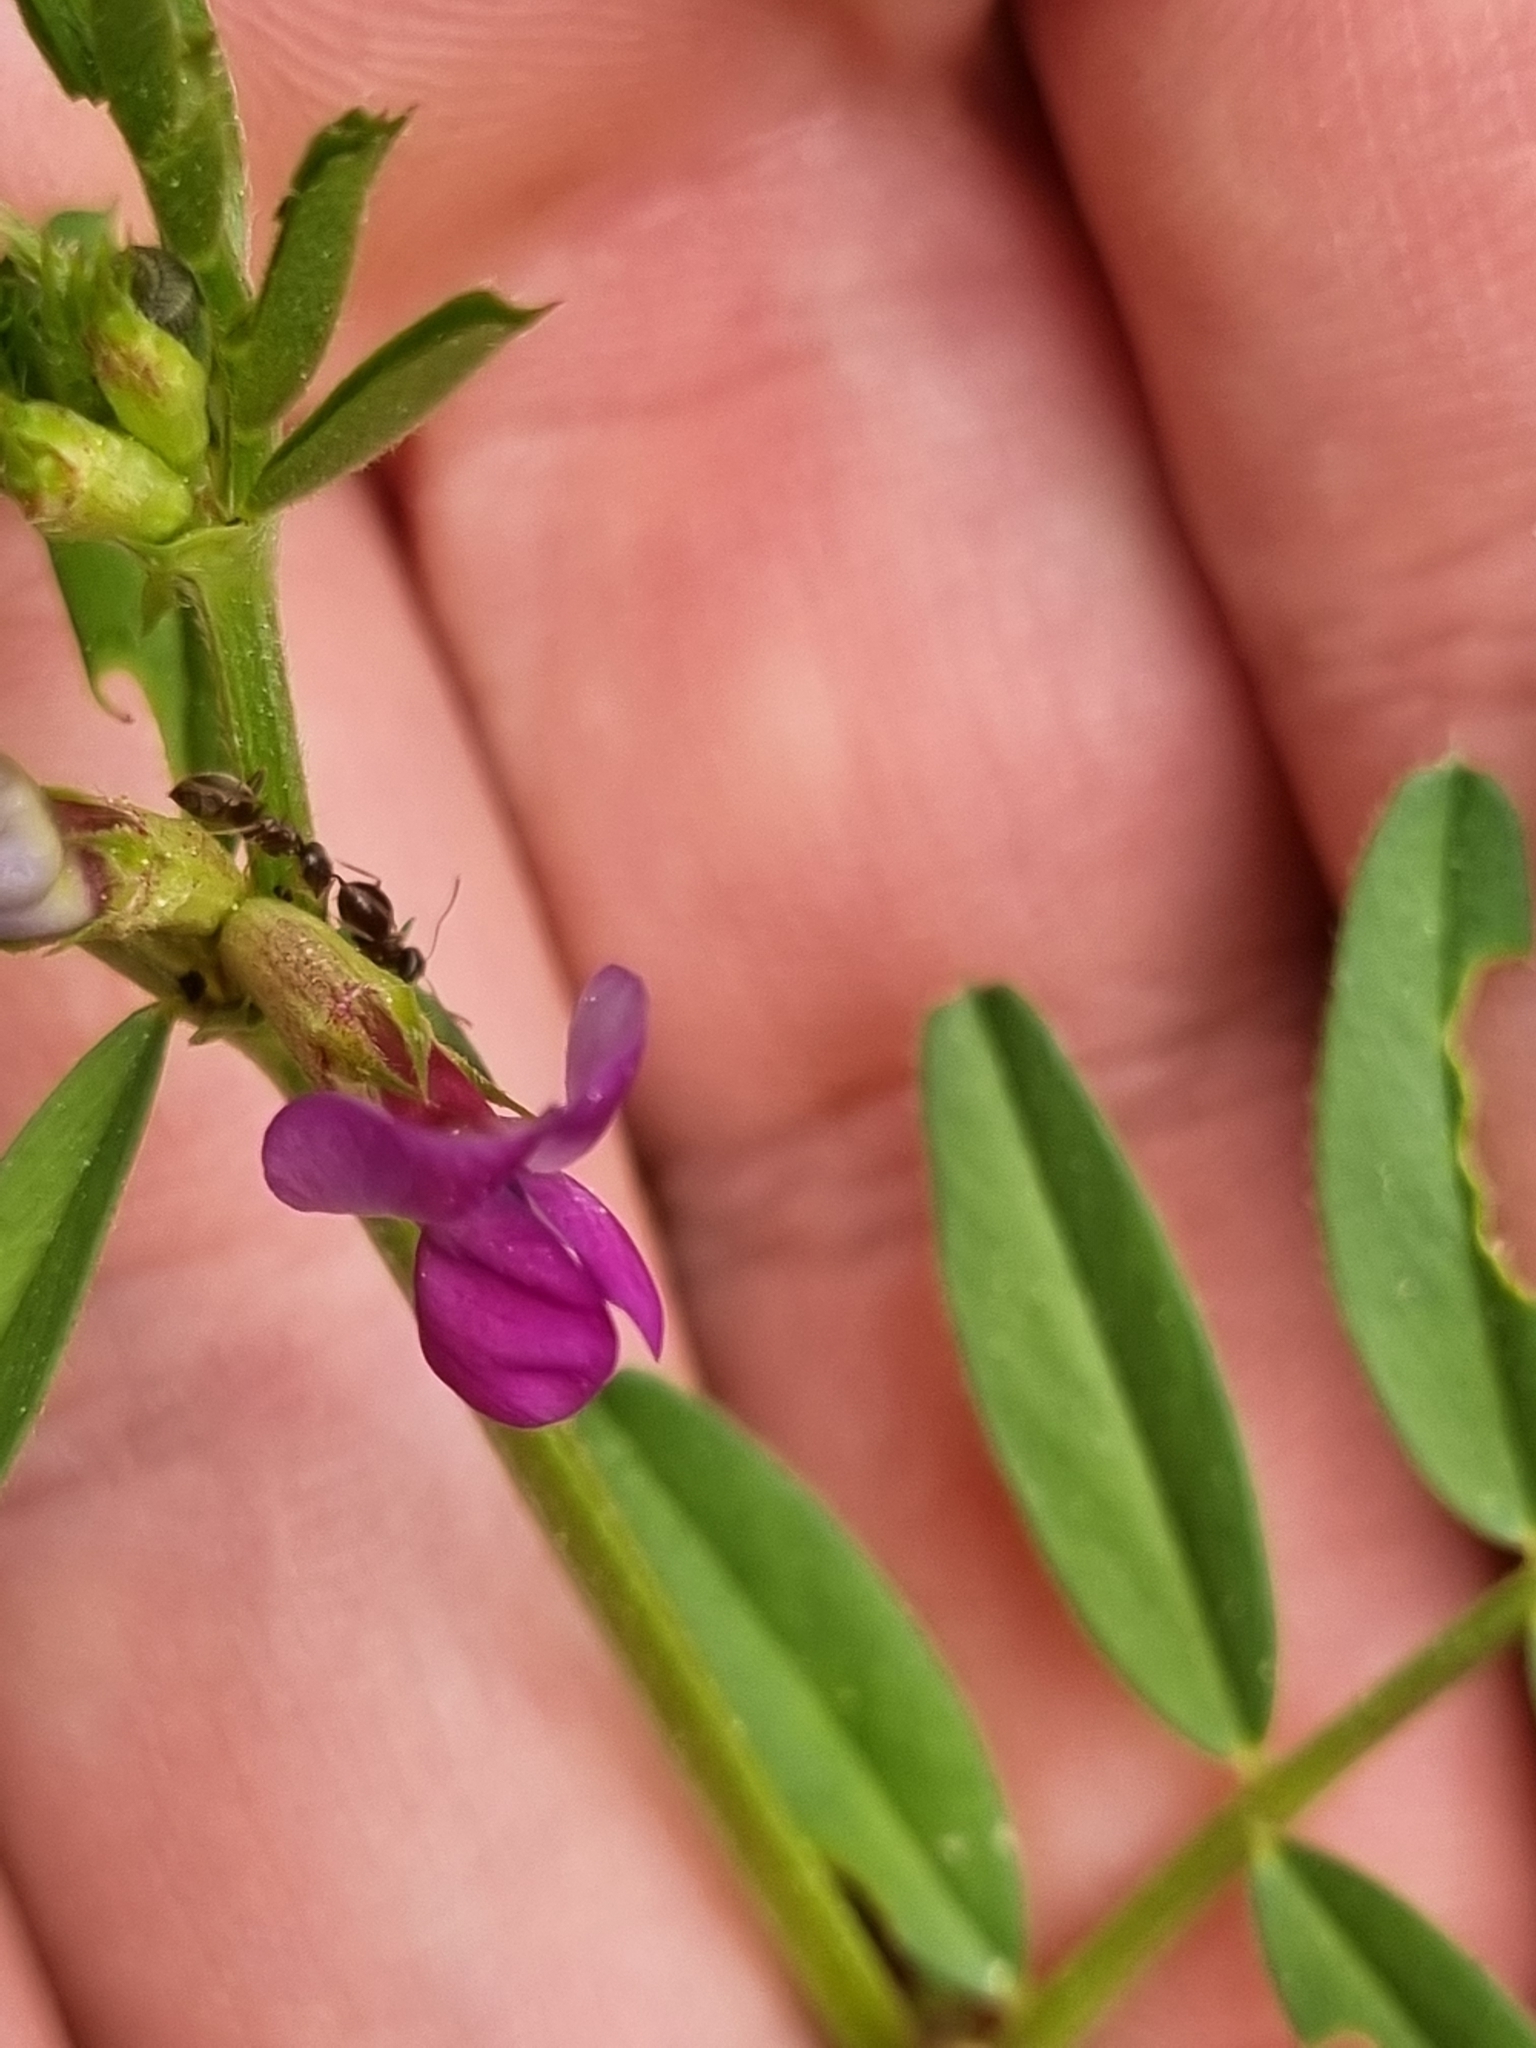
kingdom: Plantae
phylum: Tracheophyta
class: Magnoliopsida
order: Fabales
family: Fabaceae
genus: Vicia
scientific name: Vicia sativa
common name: Garden vetch
